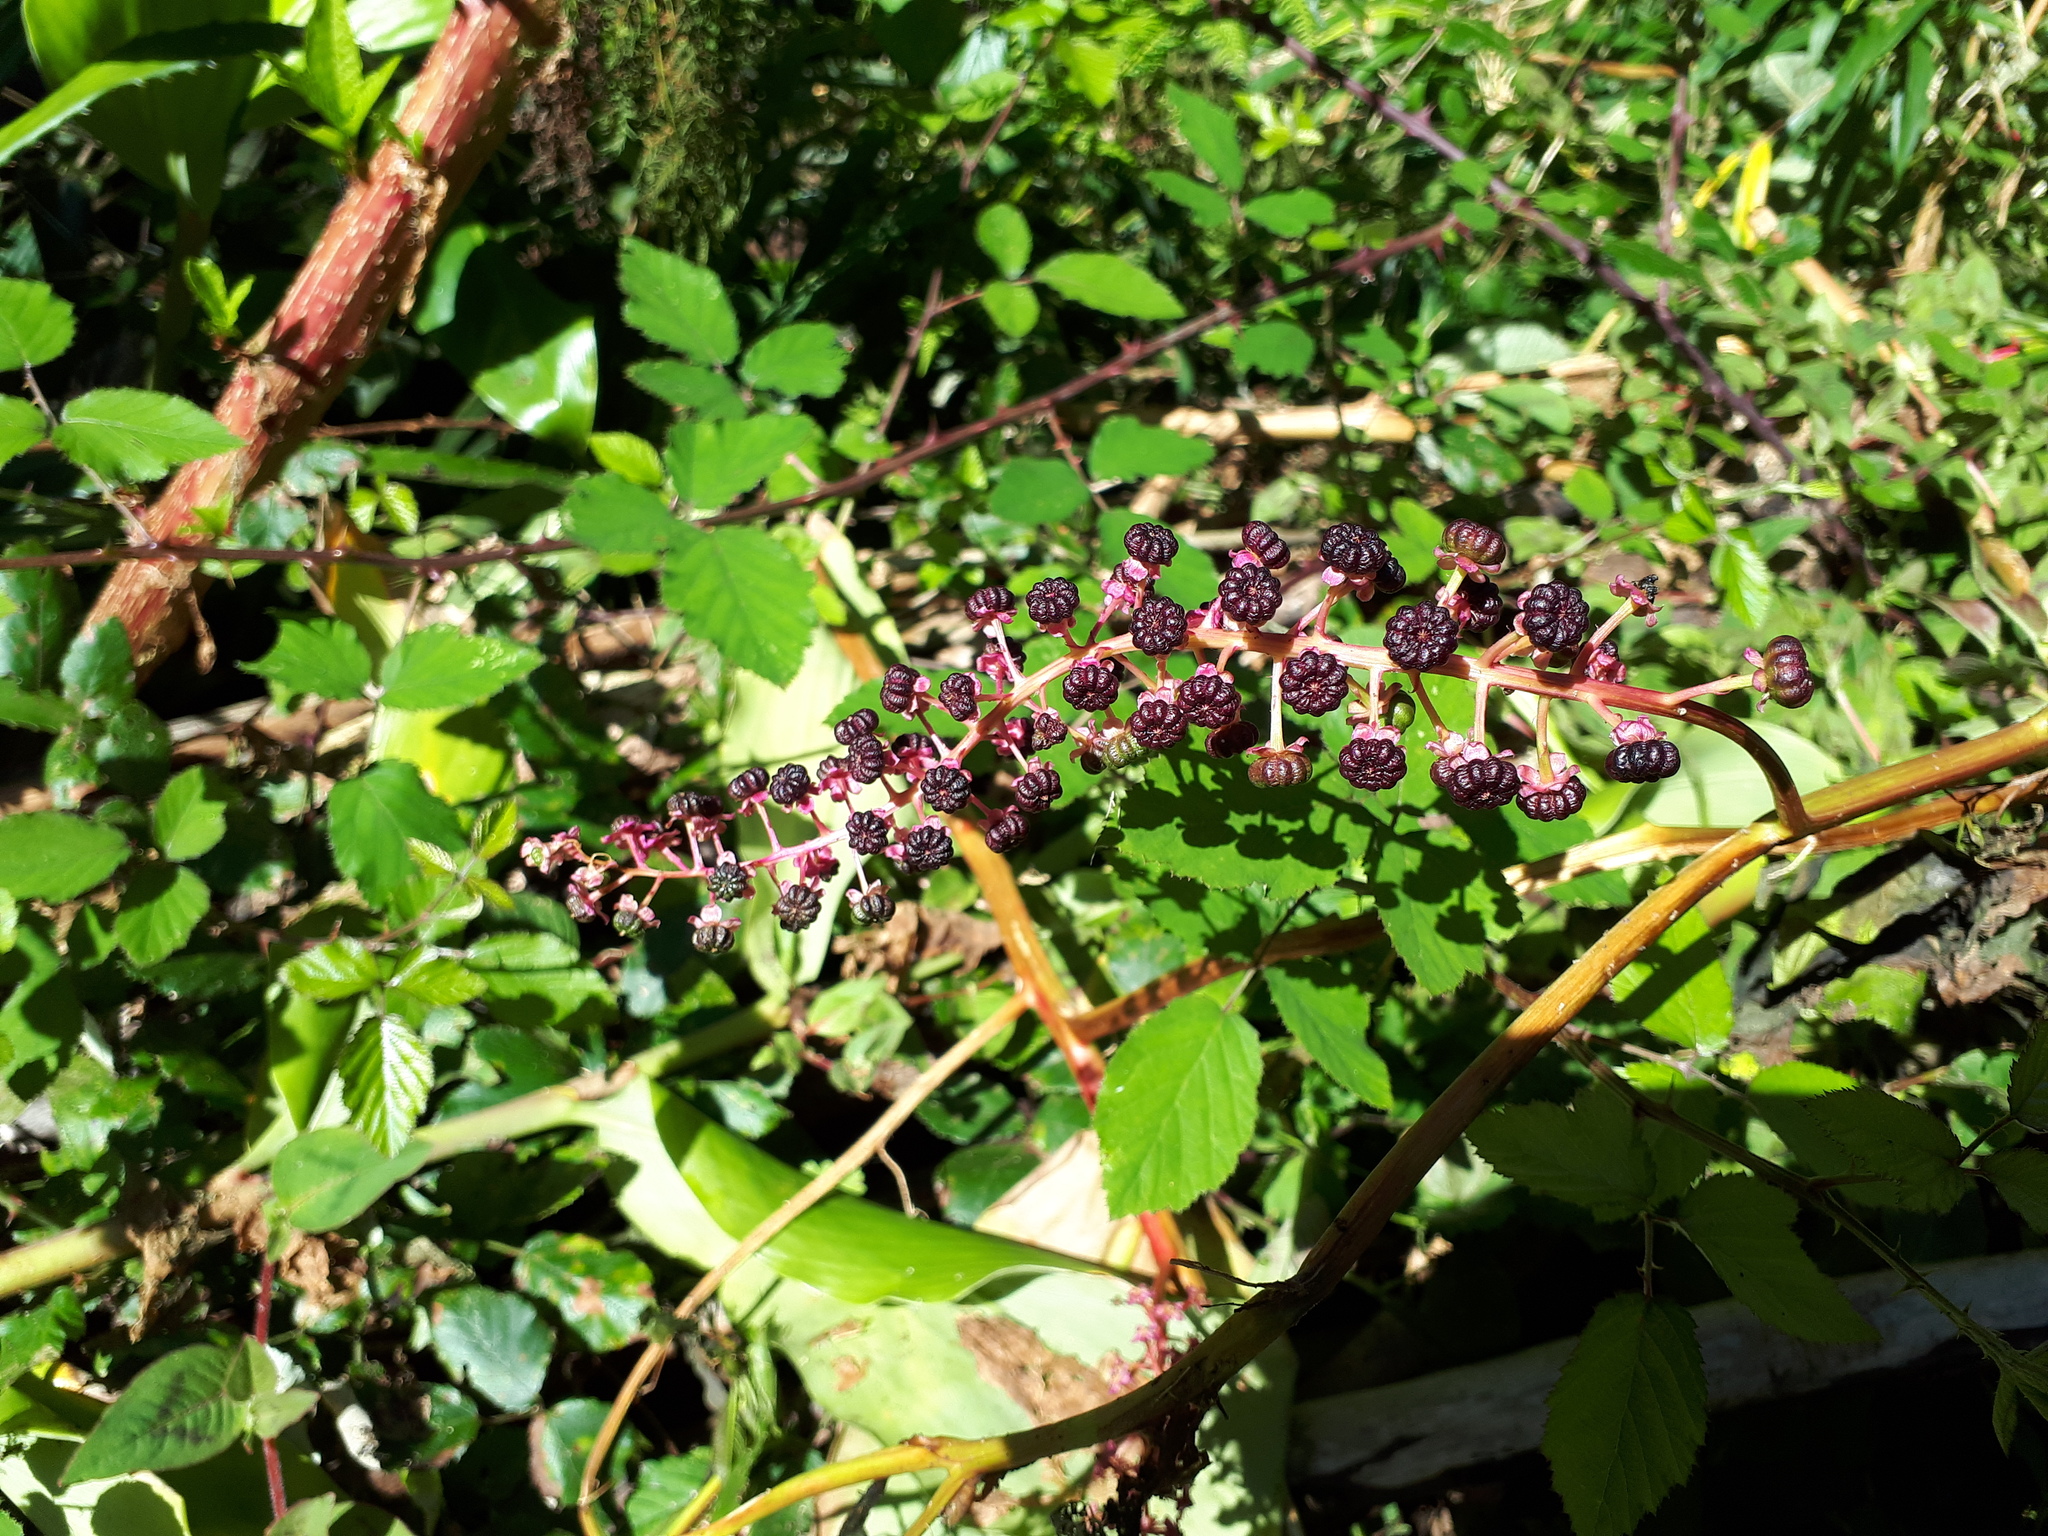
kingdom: Plantae
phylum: Tracheophyta
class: Magnoliopsida
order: Caryophyllales
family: Phytolaccaceae
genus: Phytolacca
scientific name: Phytolacca americana
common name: American pokeweed
